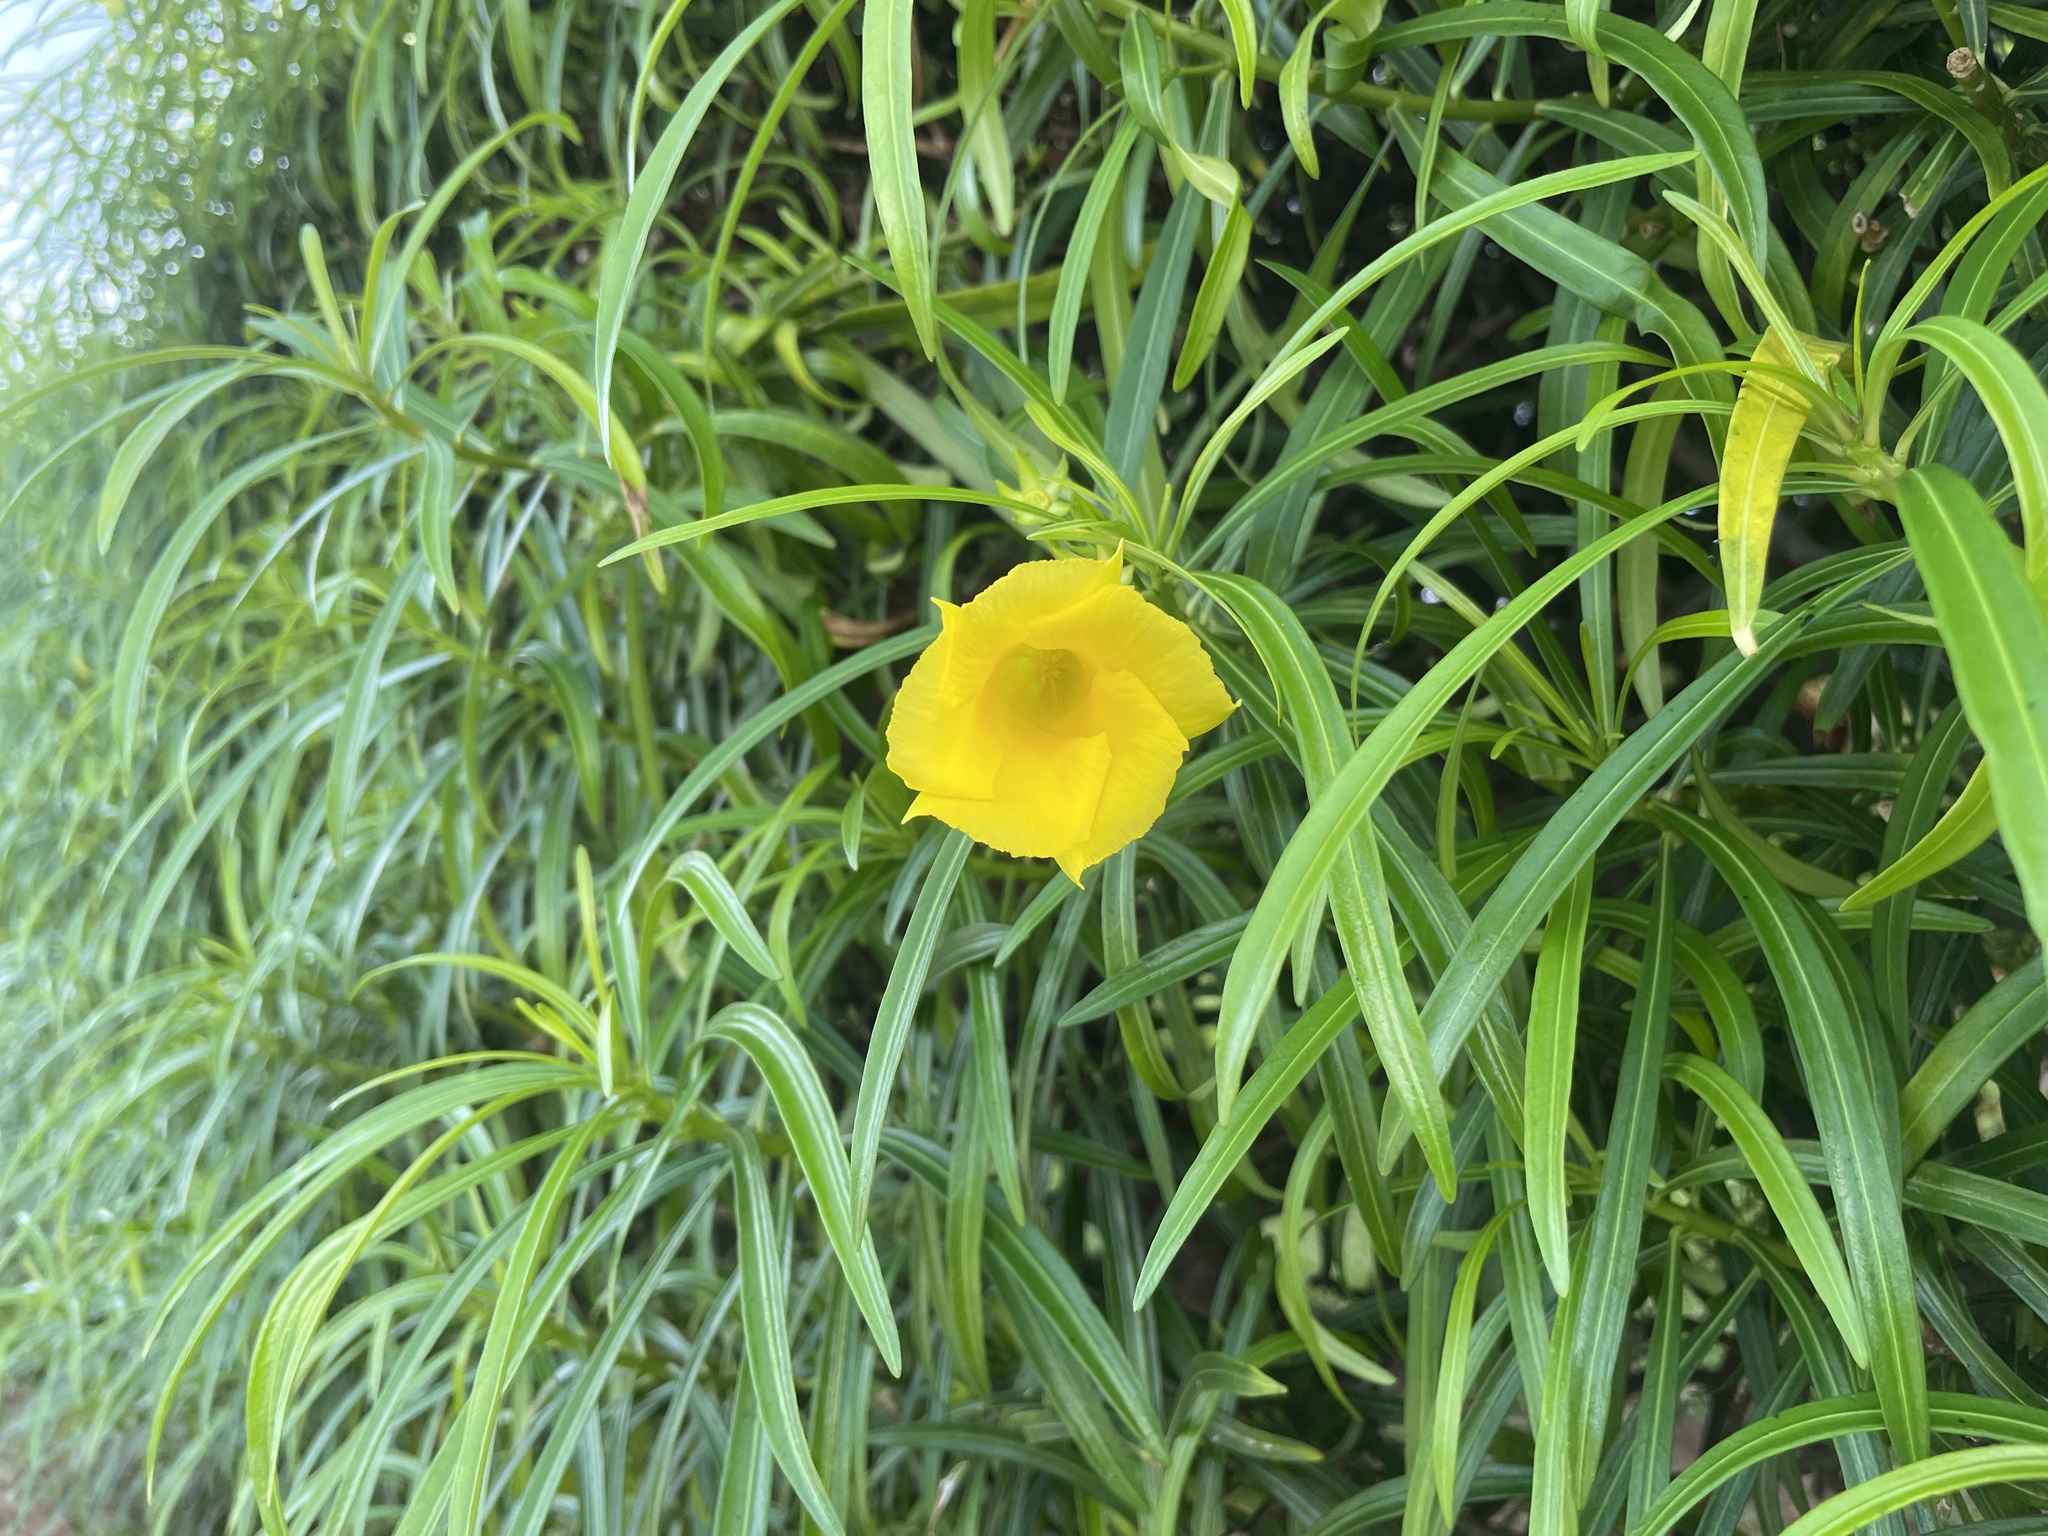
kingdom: Plantae
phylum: Tracheophyta
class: Magnoliopsida
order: Gentianales
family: Apocynaceae
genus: Cascabela
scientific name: Cascabela thevetia
